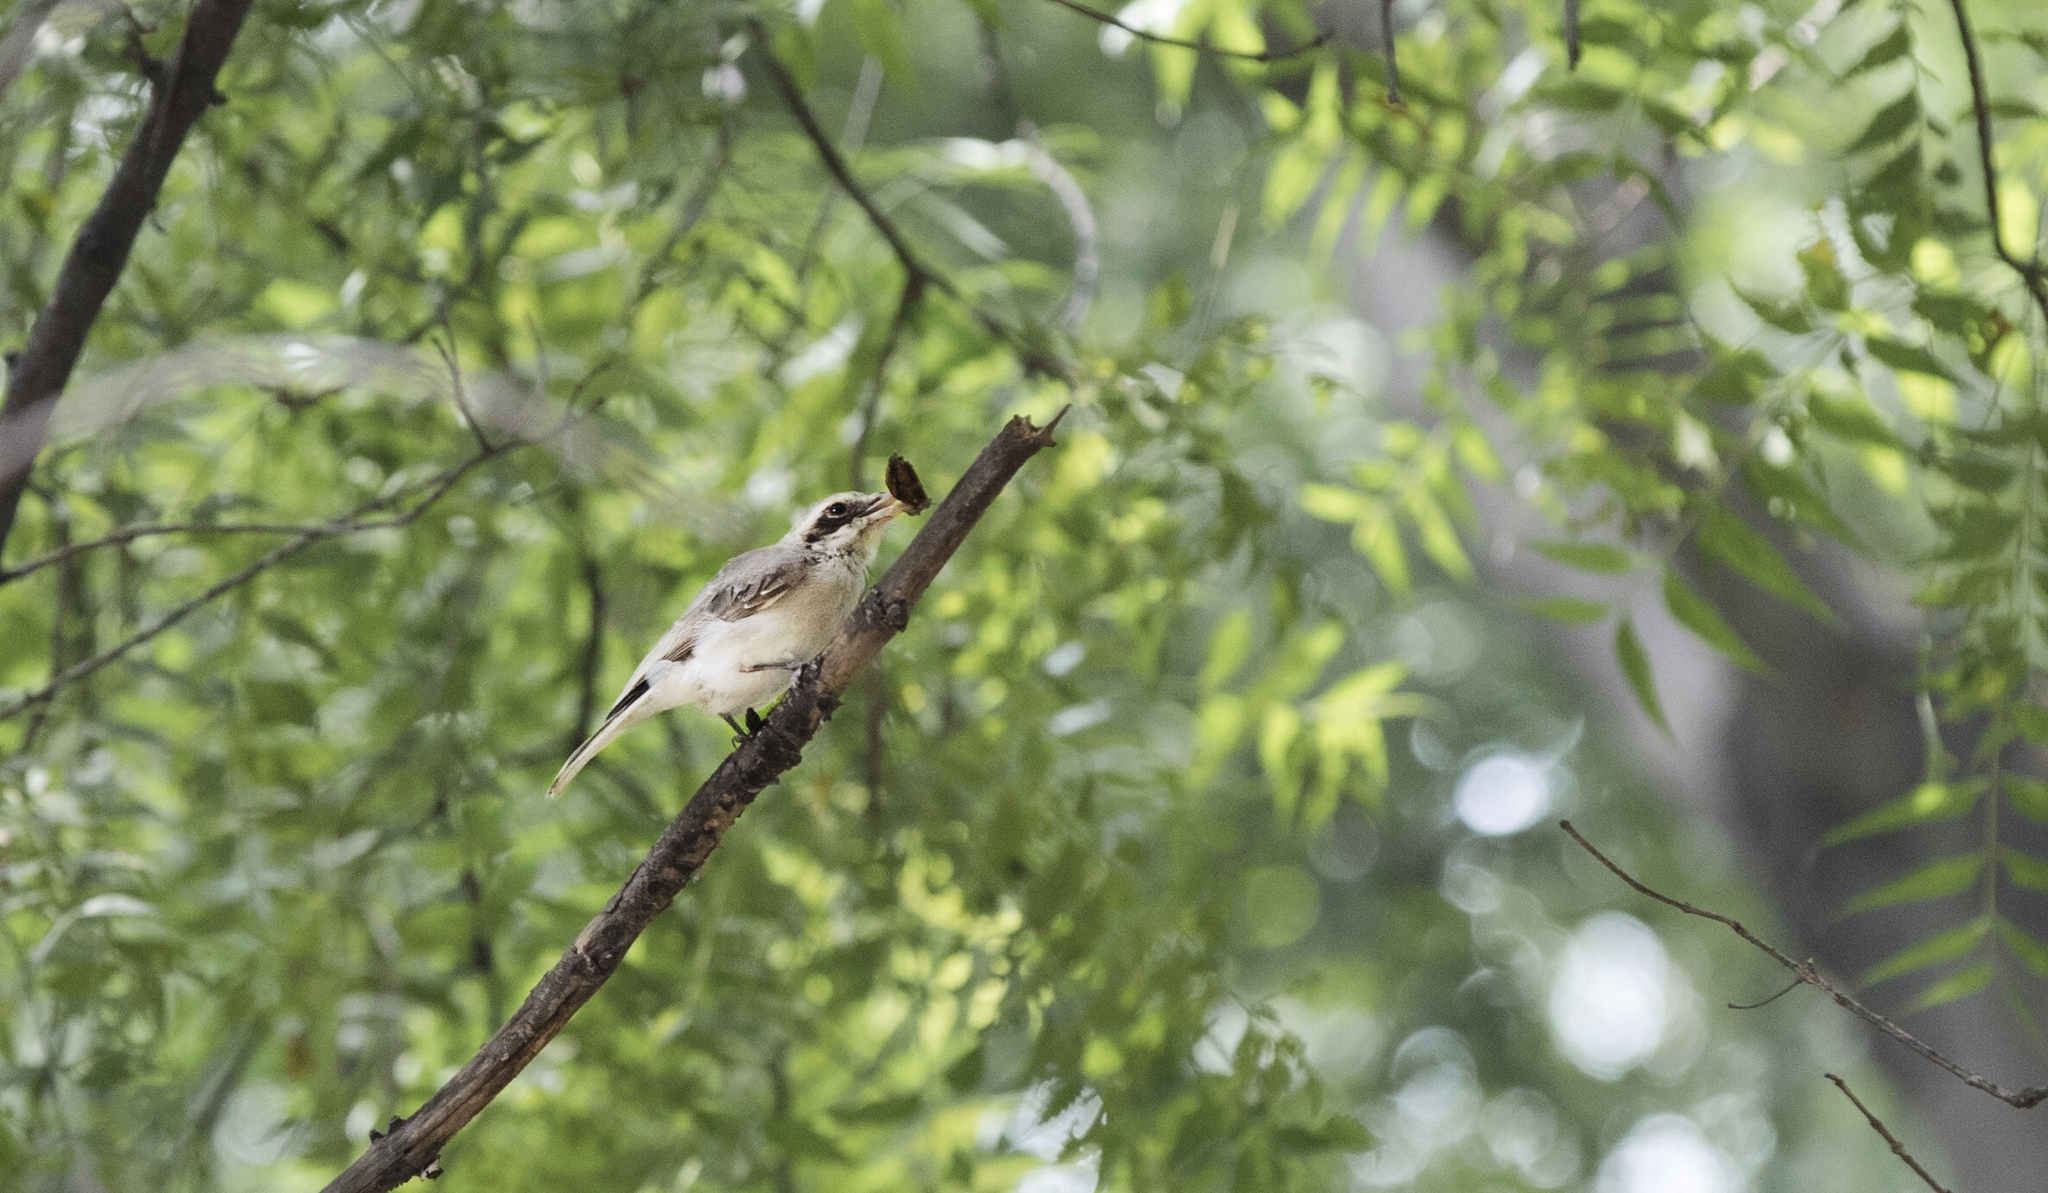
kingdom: Animalia
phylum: Chordata
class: Aves
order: Passeriformes
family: Tephrodornithidae
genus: Tephrodornis
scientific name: Tephrodornis pondicerianus
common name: Common woodshrike
